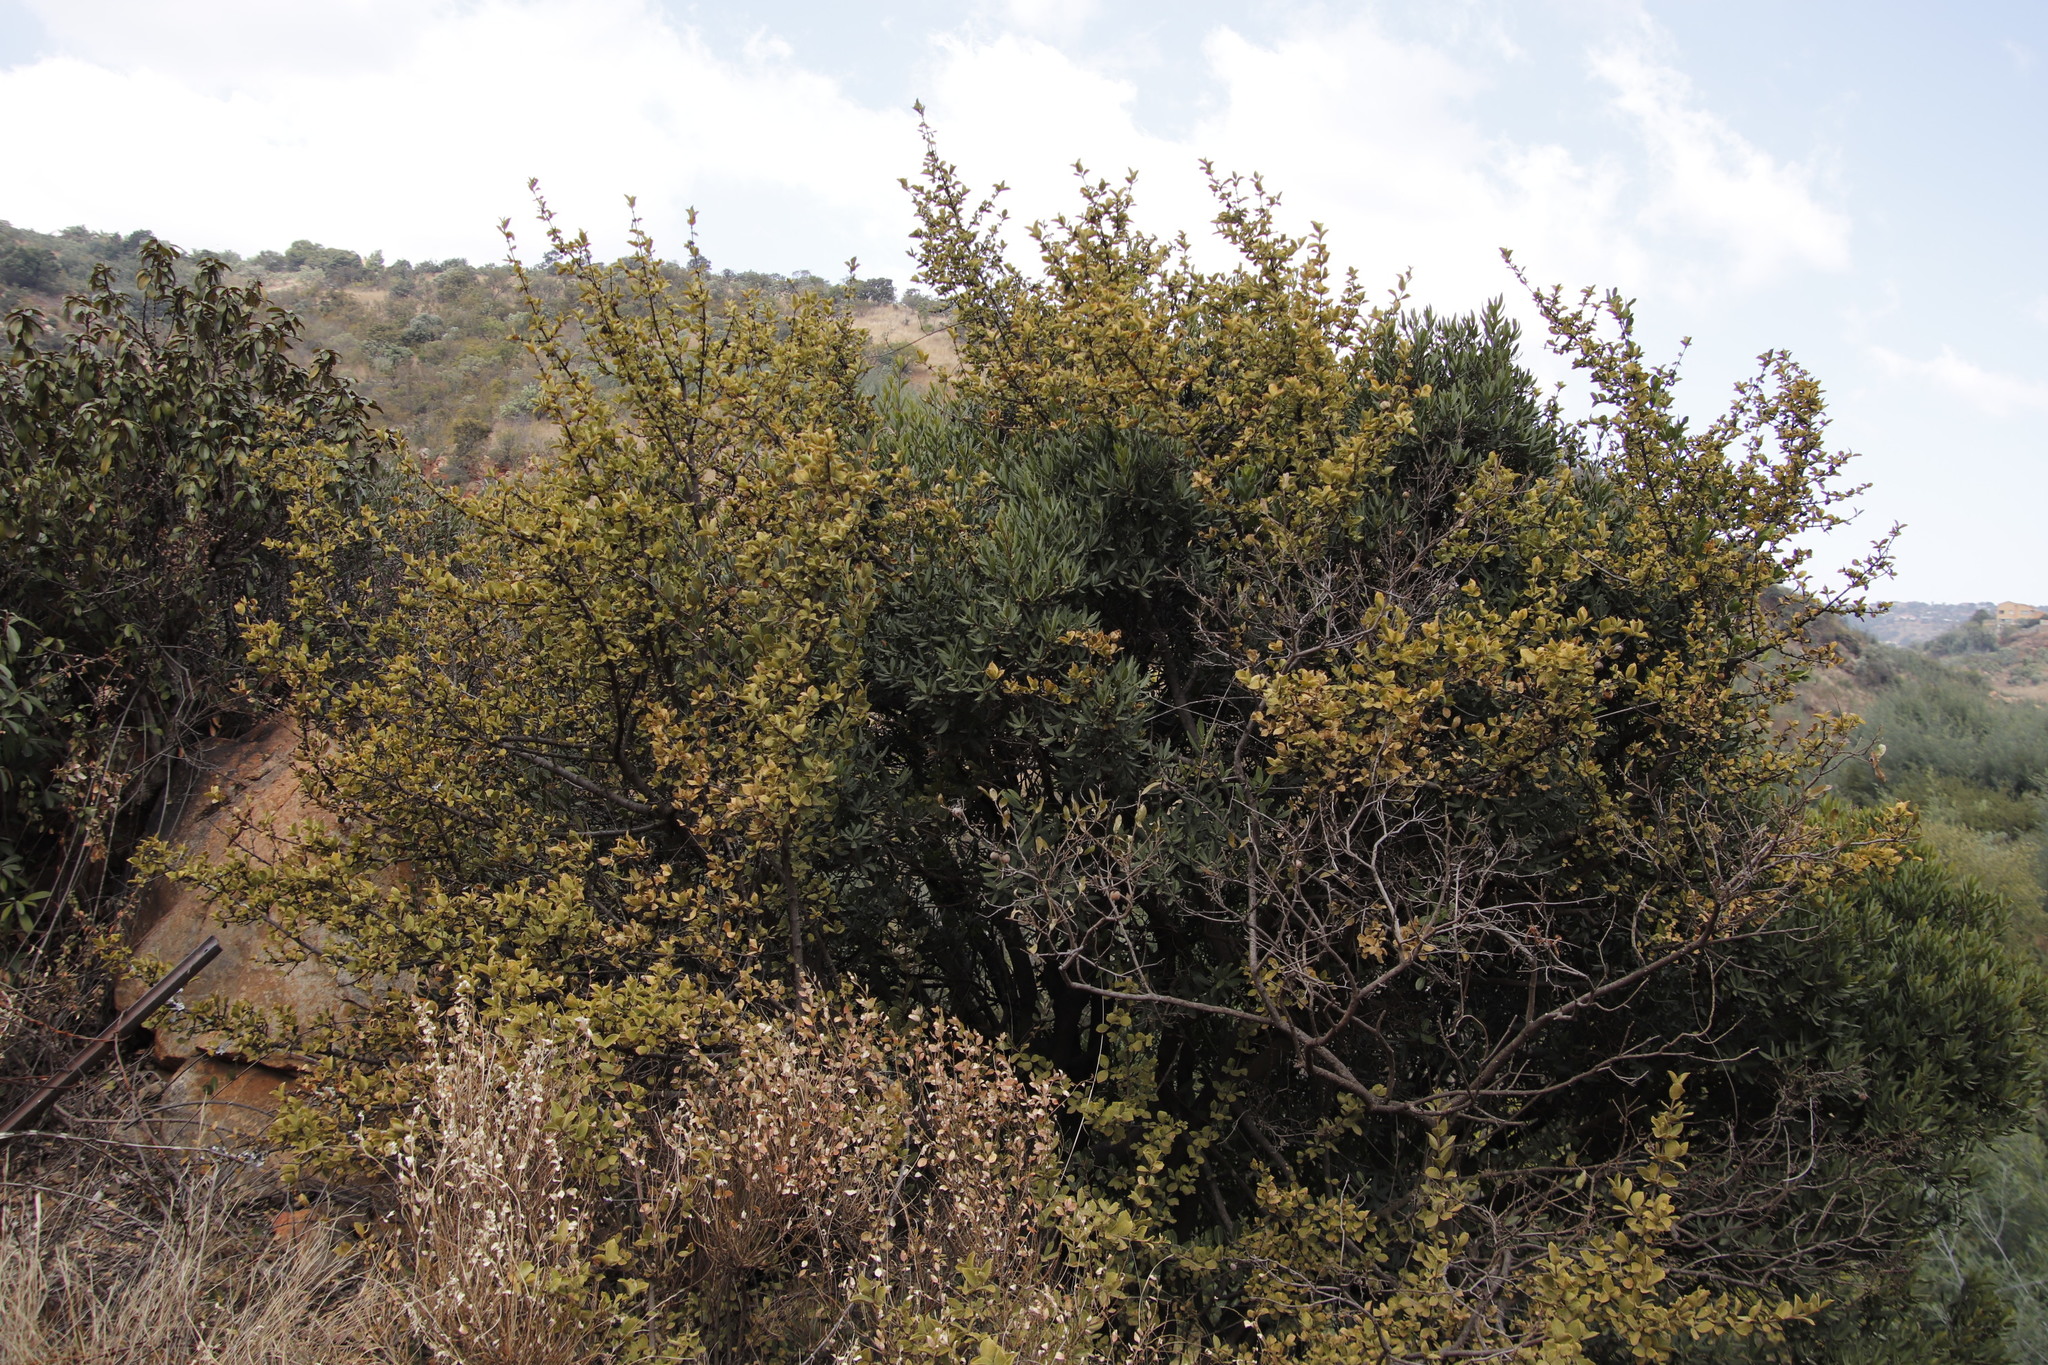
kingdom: Plantae
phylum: Tracheophyta
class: Magnoliopsida
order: Gentianales
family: Rubiaceae
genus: Vangueria
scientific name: Vangueria parvifolia
